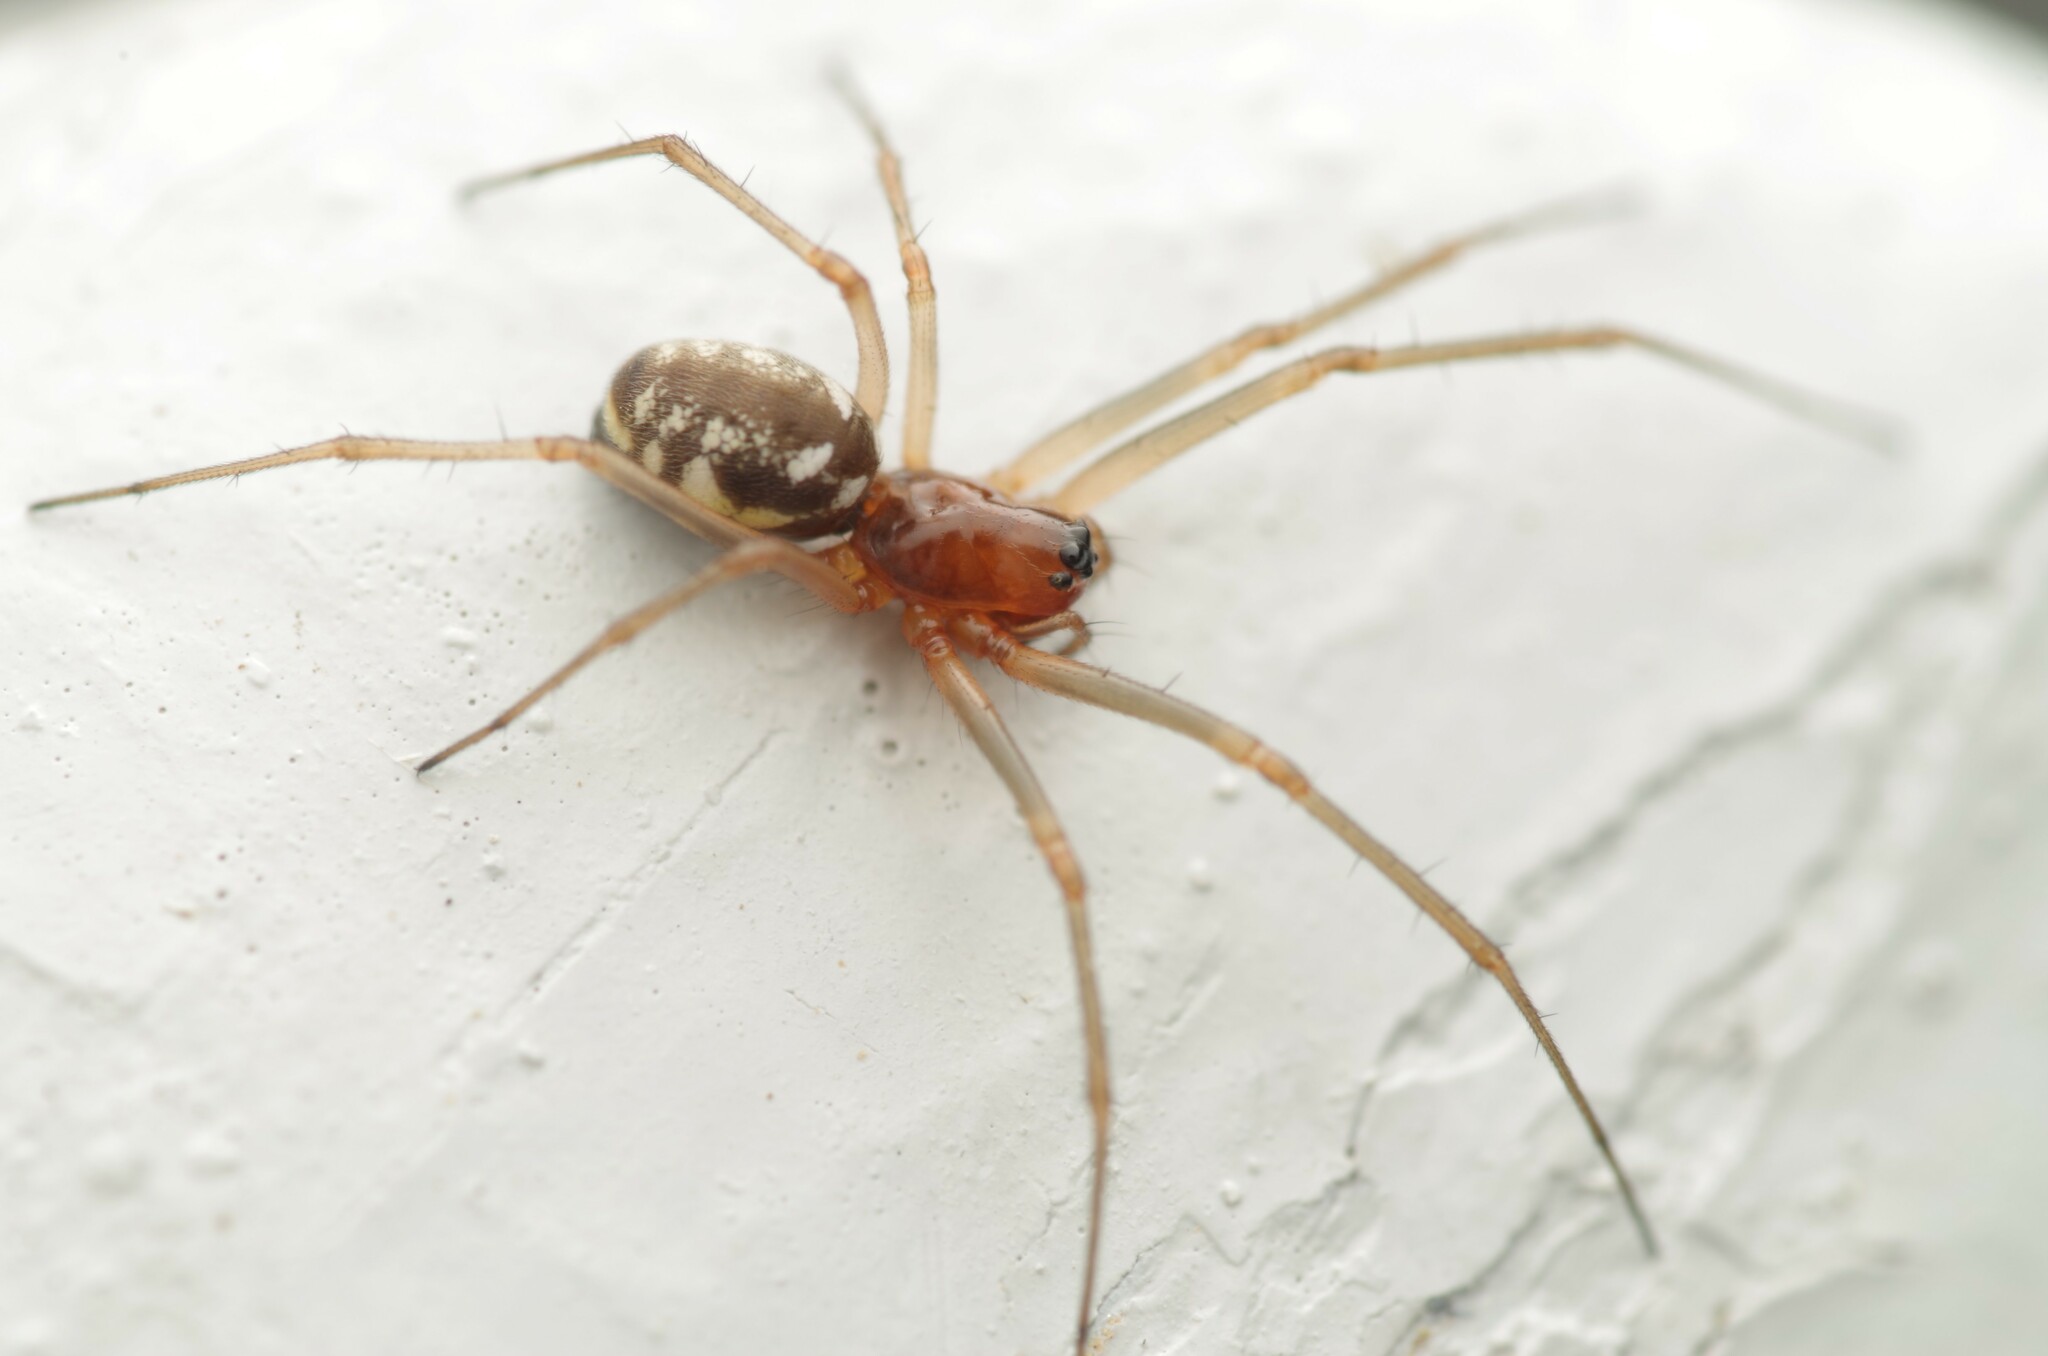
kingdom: Animalia
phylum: Arthropoda
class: Arachnida
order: Araneae
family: Linyphiidae
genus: Microlinyphia
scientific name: Microlinyphia pusilla
